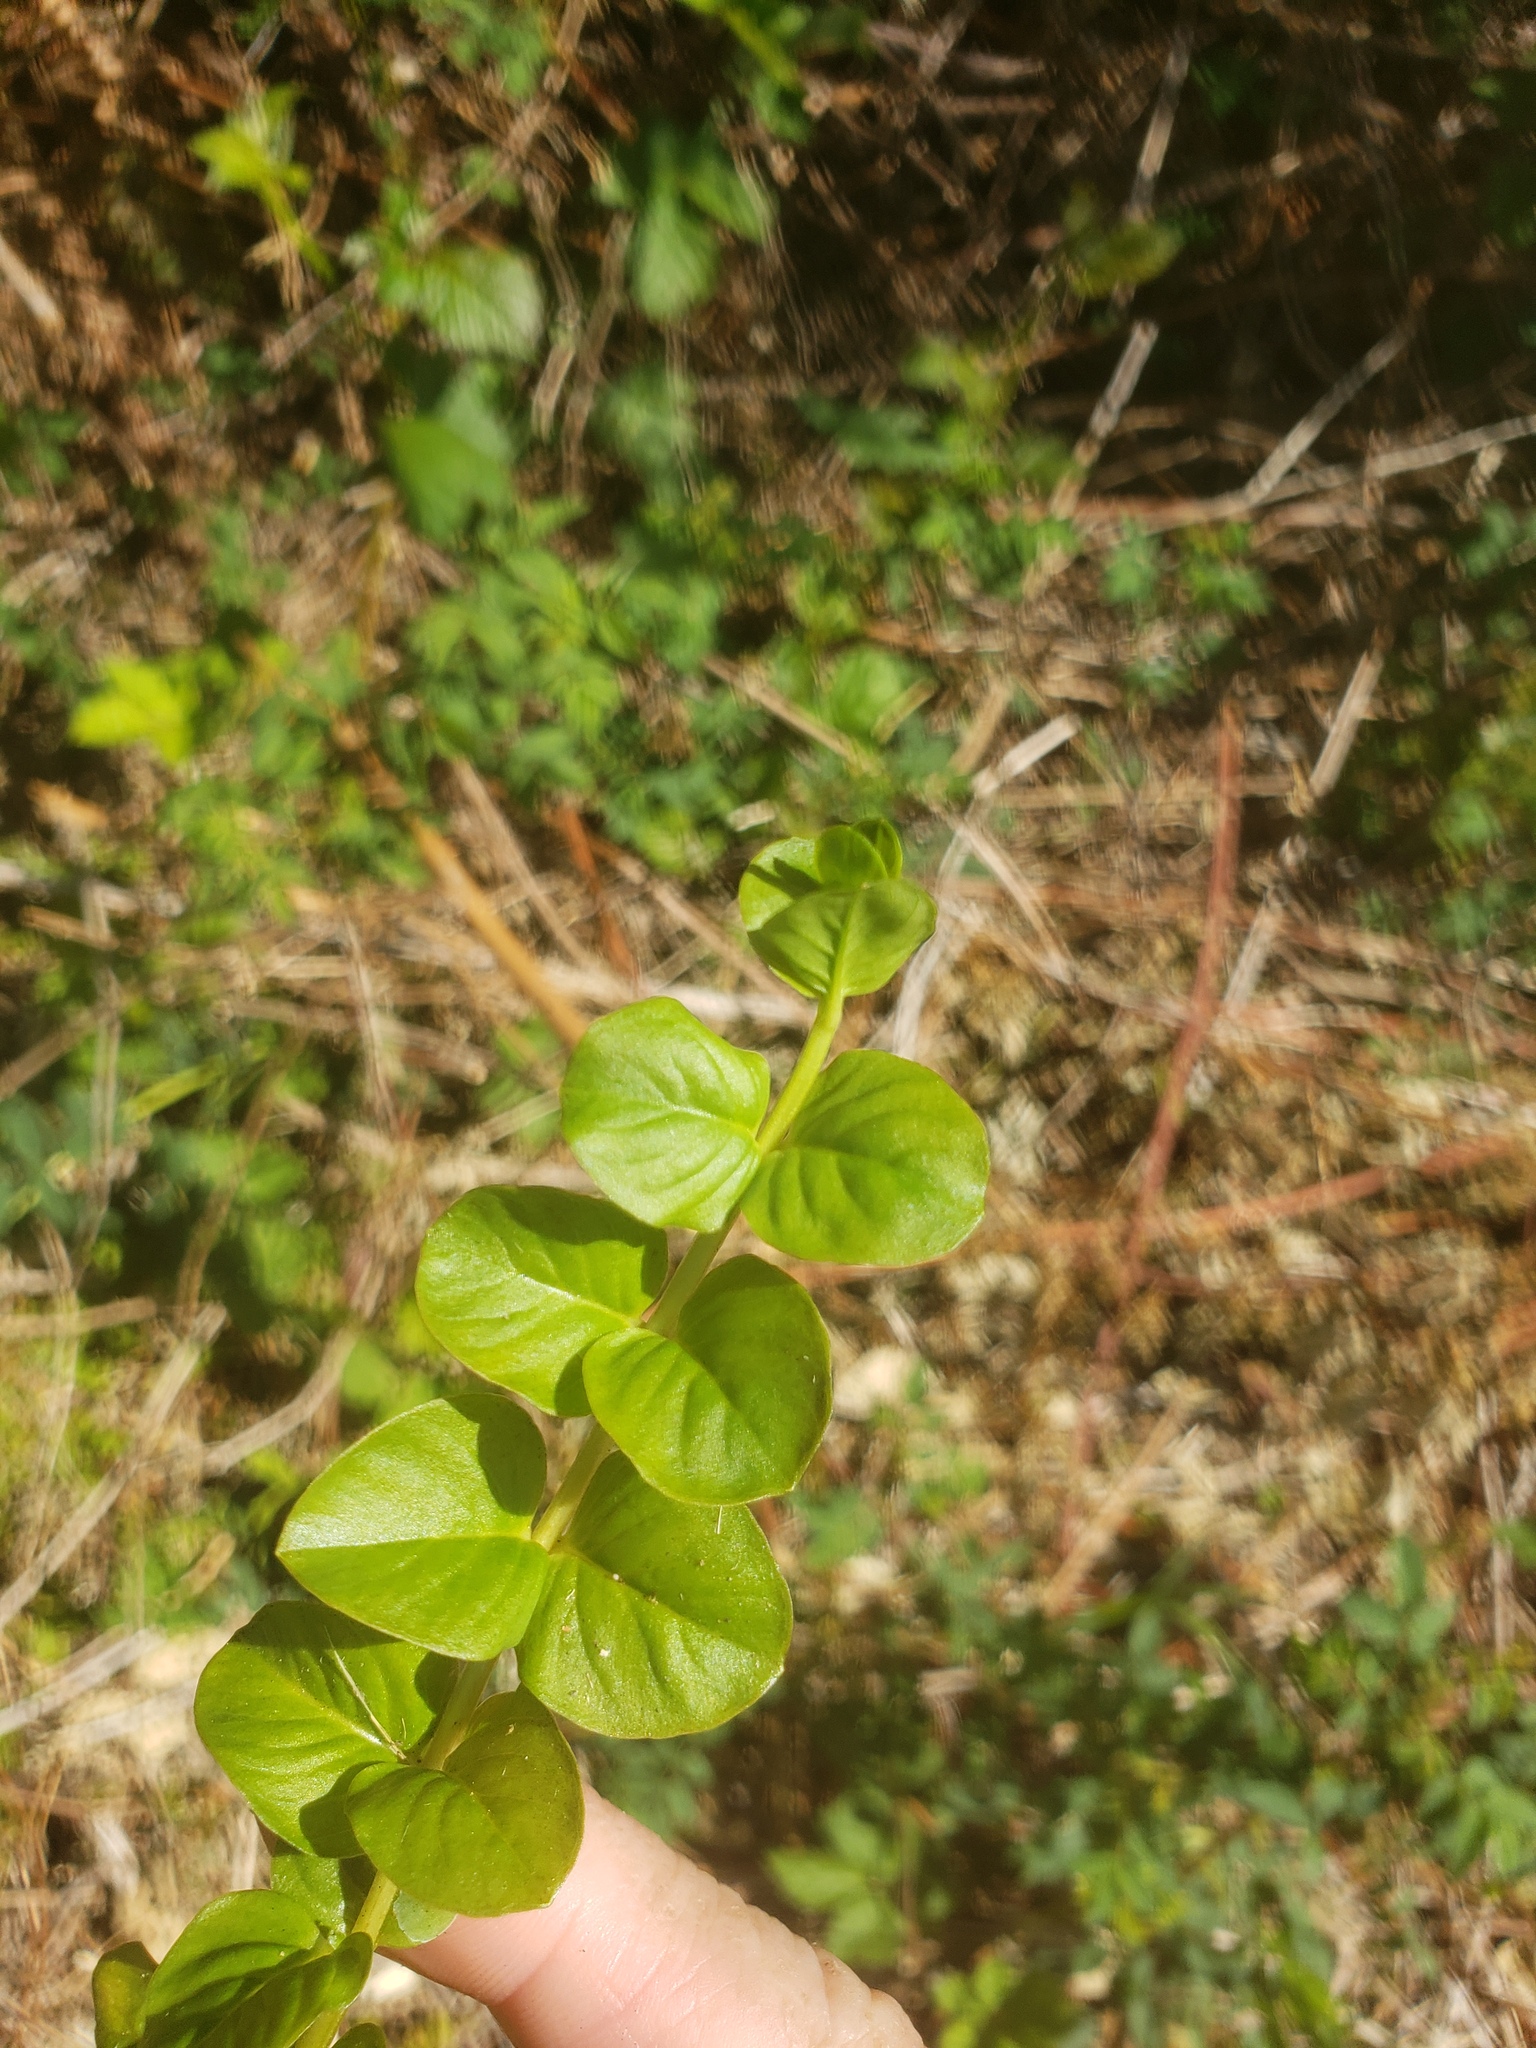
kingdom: Plantae
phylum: Tracheophyta
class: Magnoliopsida
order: Ericales
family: Primulaceae
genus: Lysimachia
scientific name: Lysimachia nummularia
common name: Moneywort
